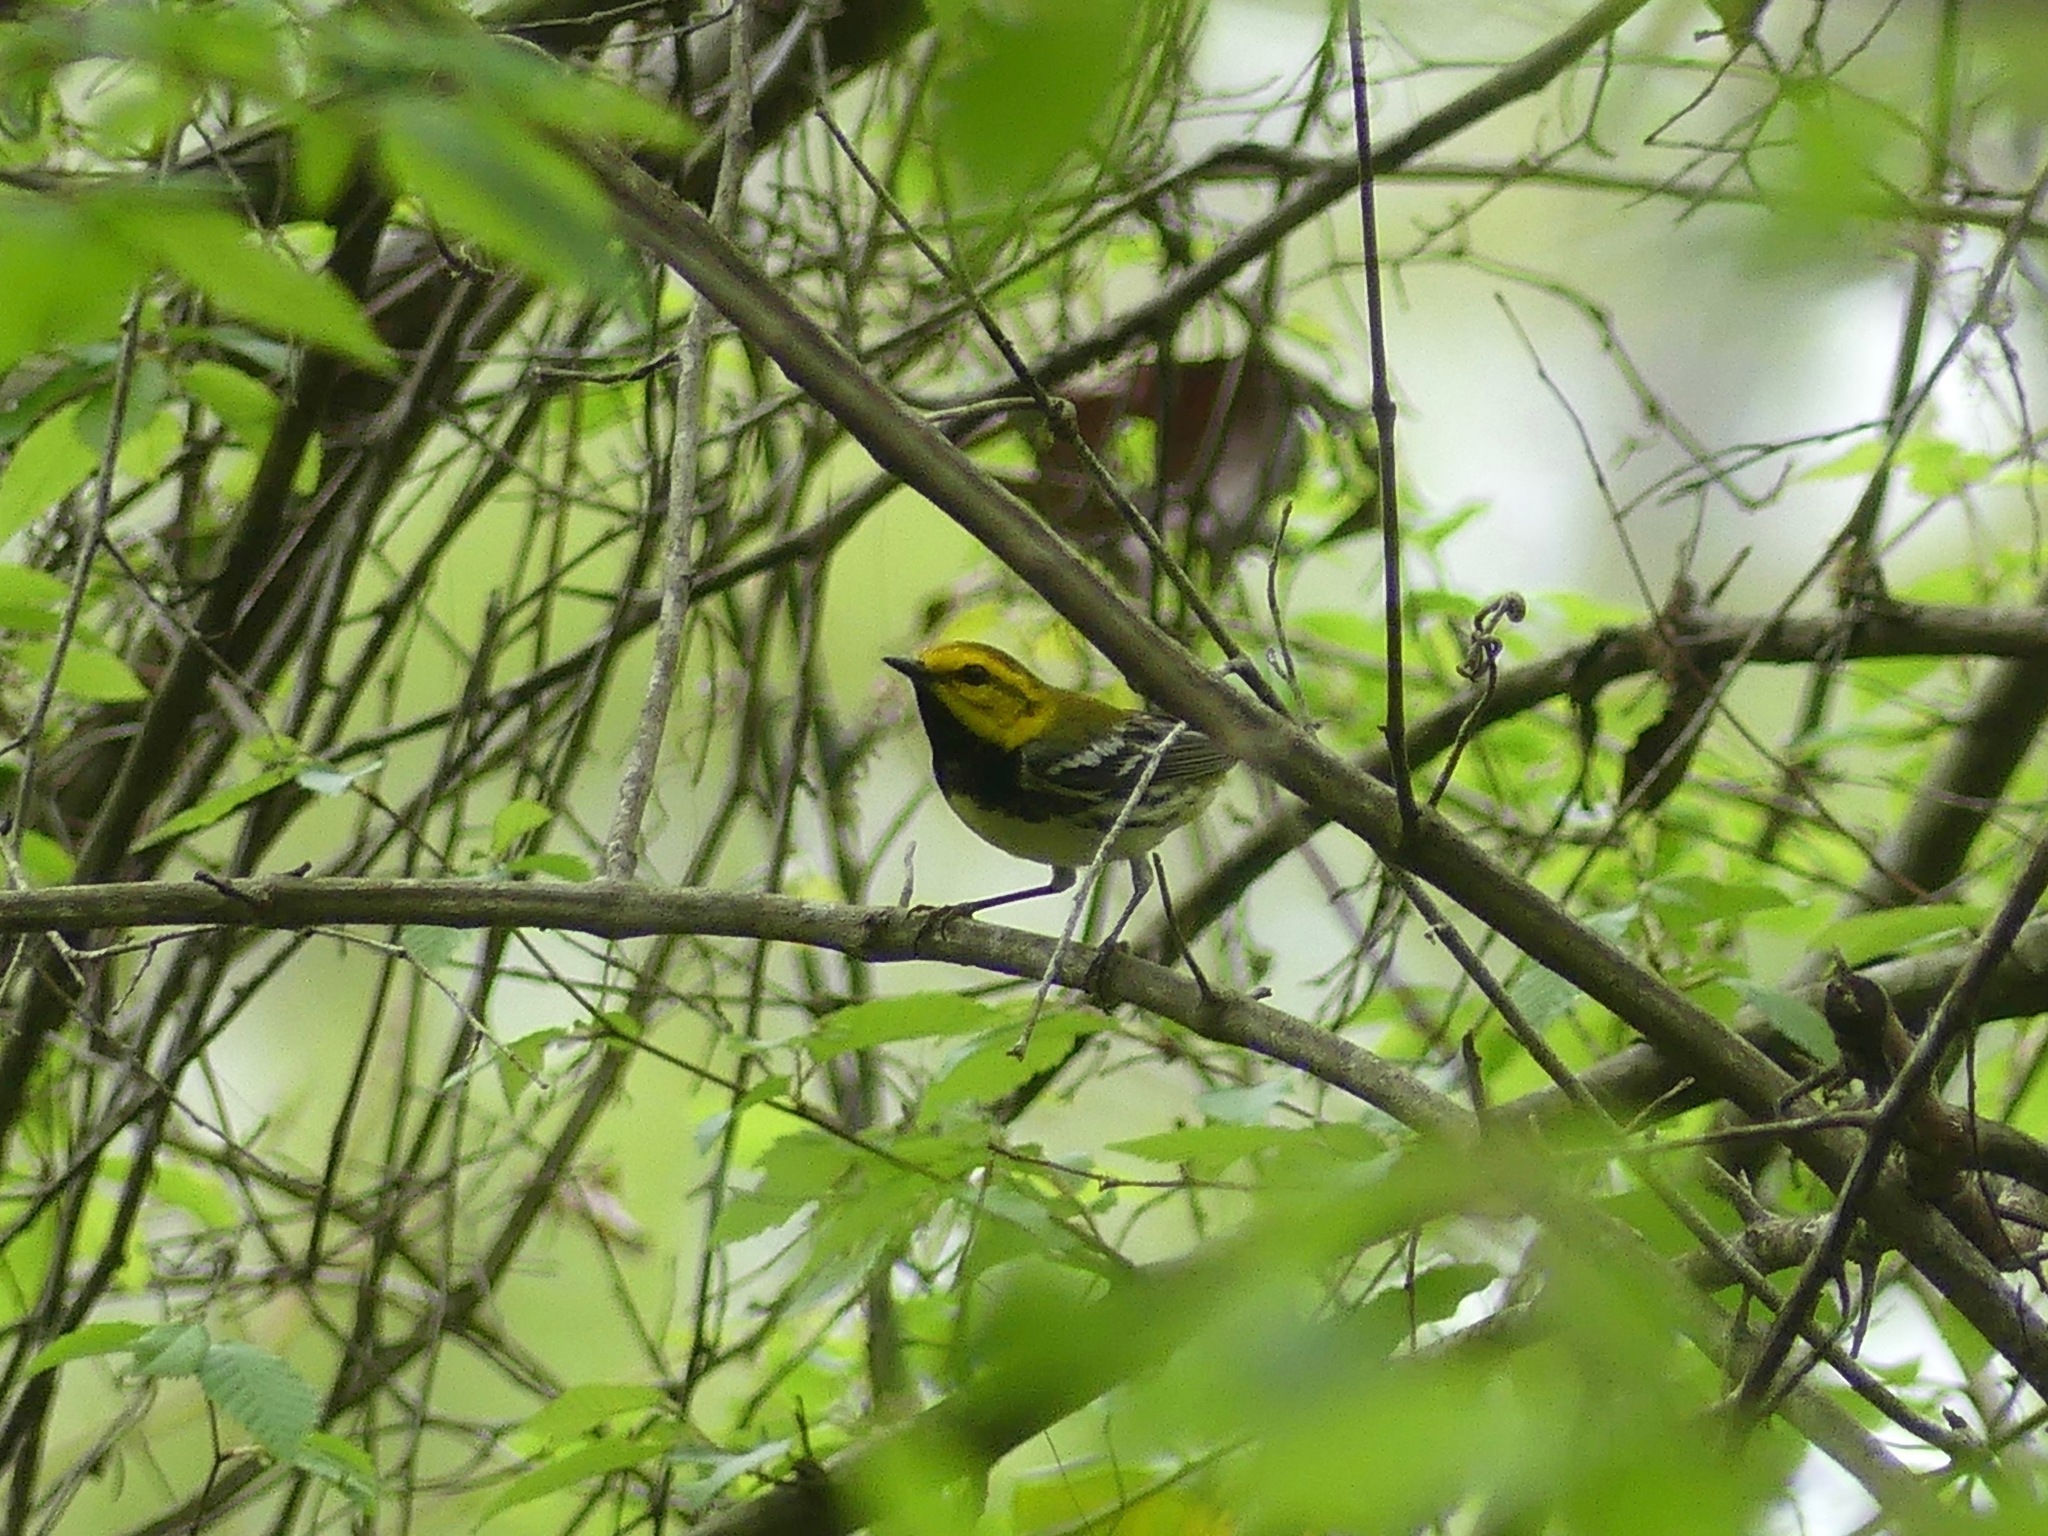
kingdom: Animalia
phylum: Chordata
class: Aves
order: Passeriformes
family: Parulidae
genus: Setophaga
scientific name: Setophaga virens
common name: Black-throated green warbler
